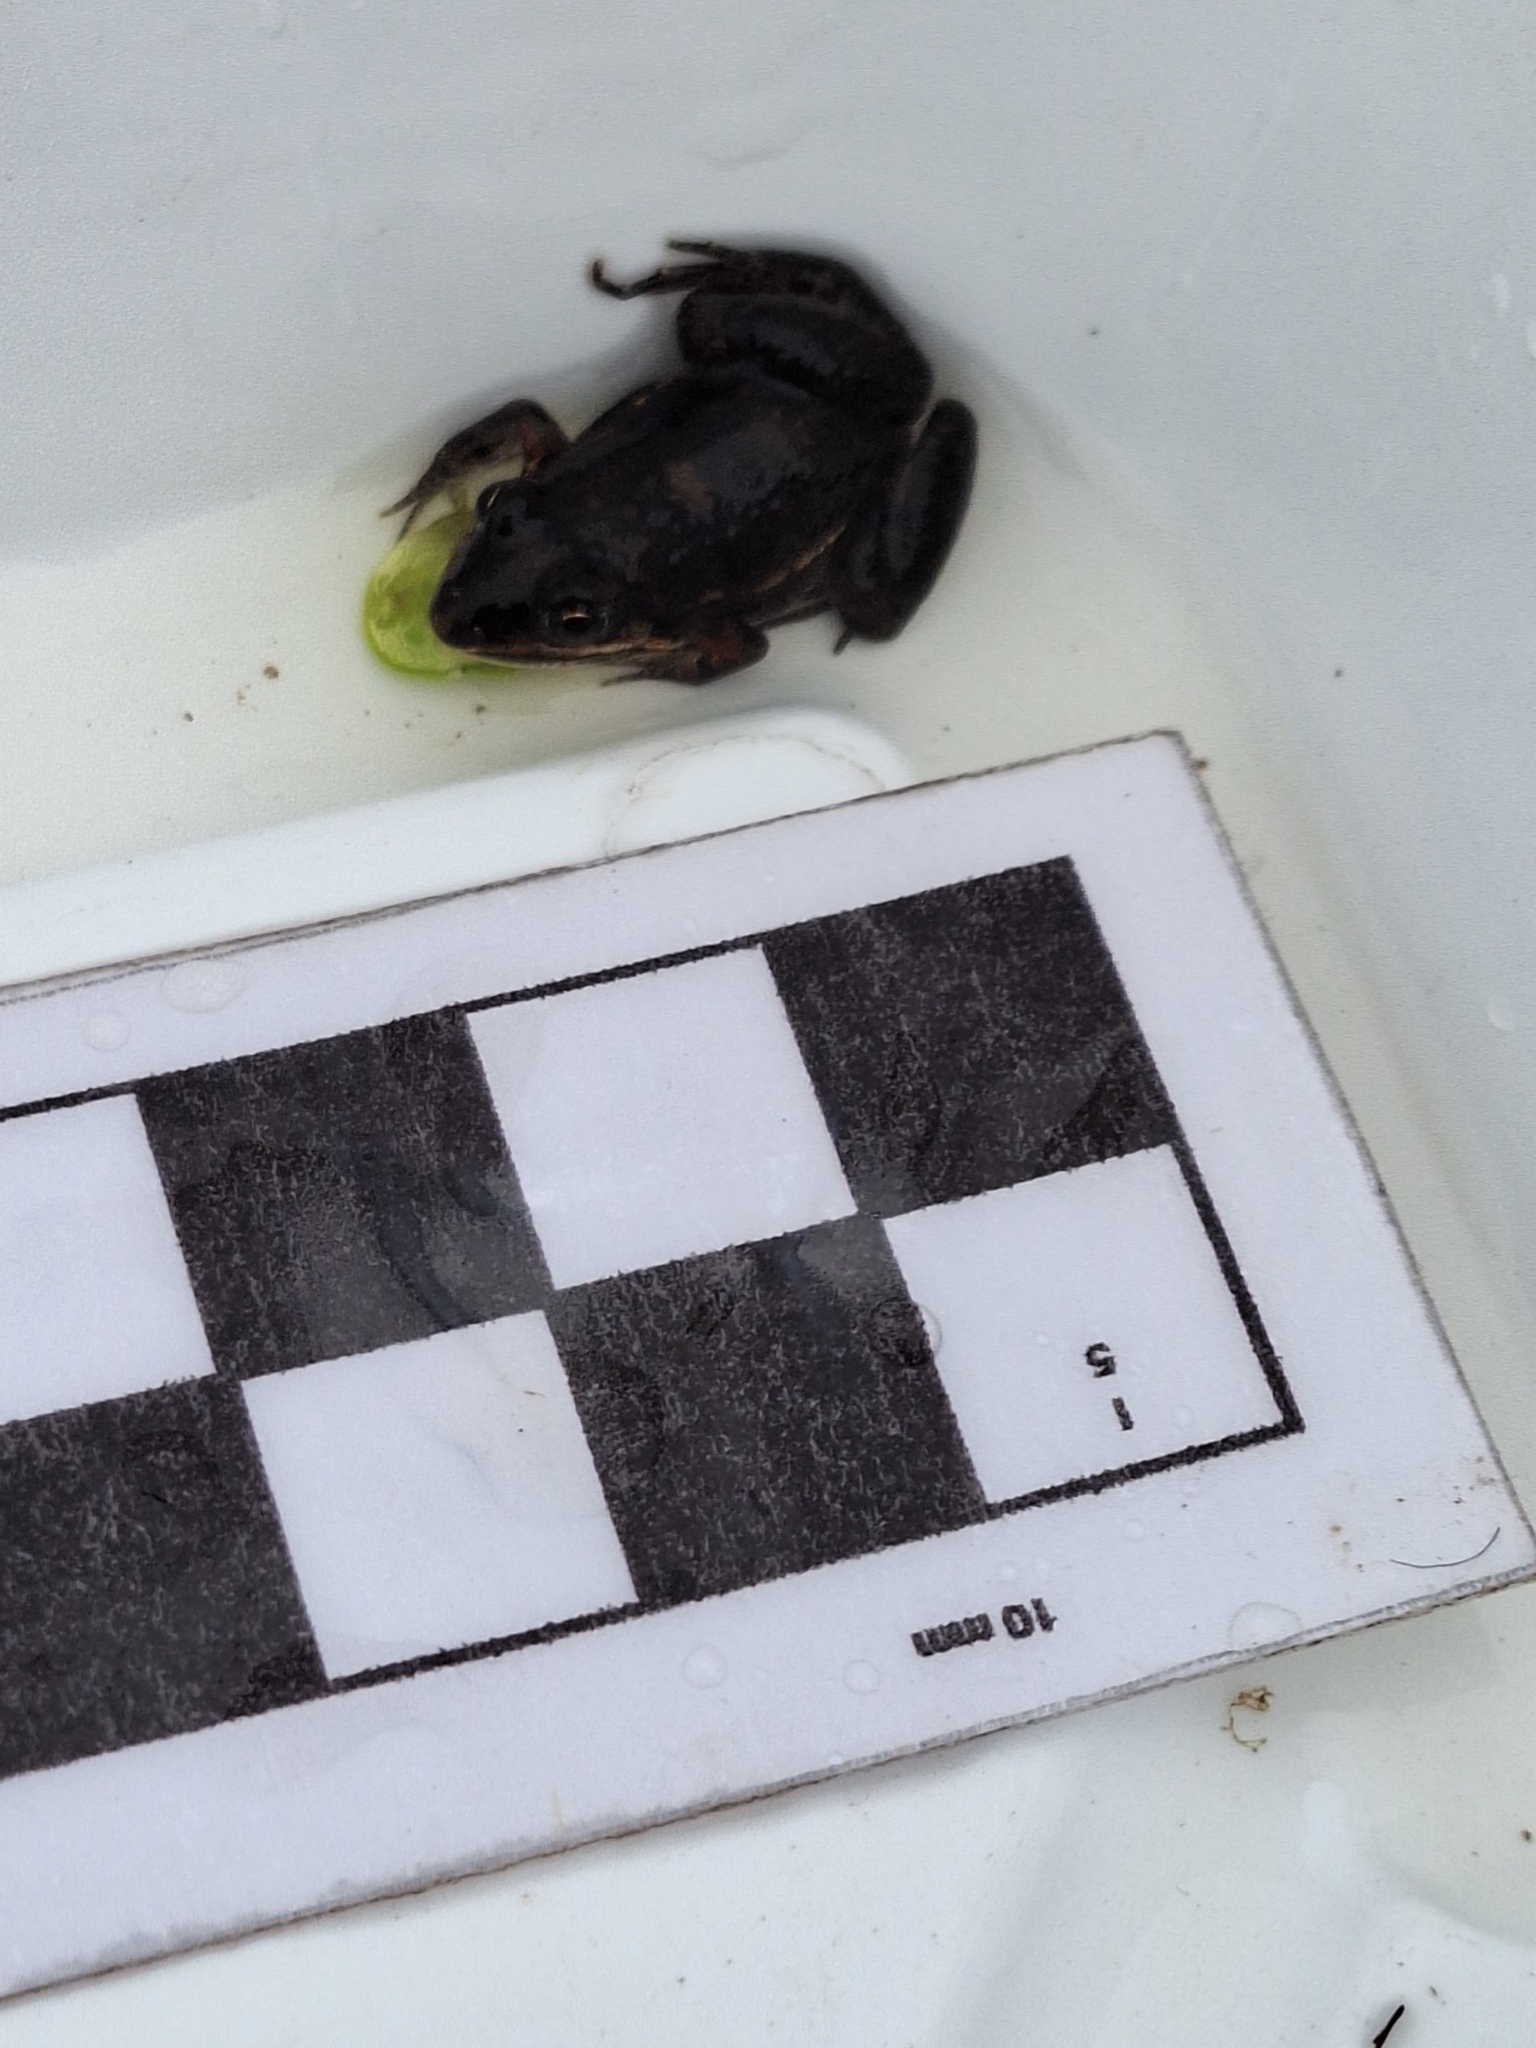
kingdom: Animalia
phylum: Chordata
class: Amphibia
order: Anura
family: Leptodactylidae
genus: Leptodactylus
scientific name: Leptodactylus latinasus
